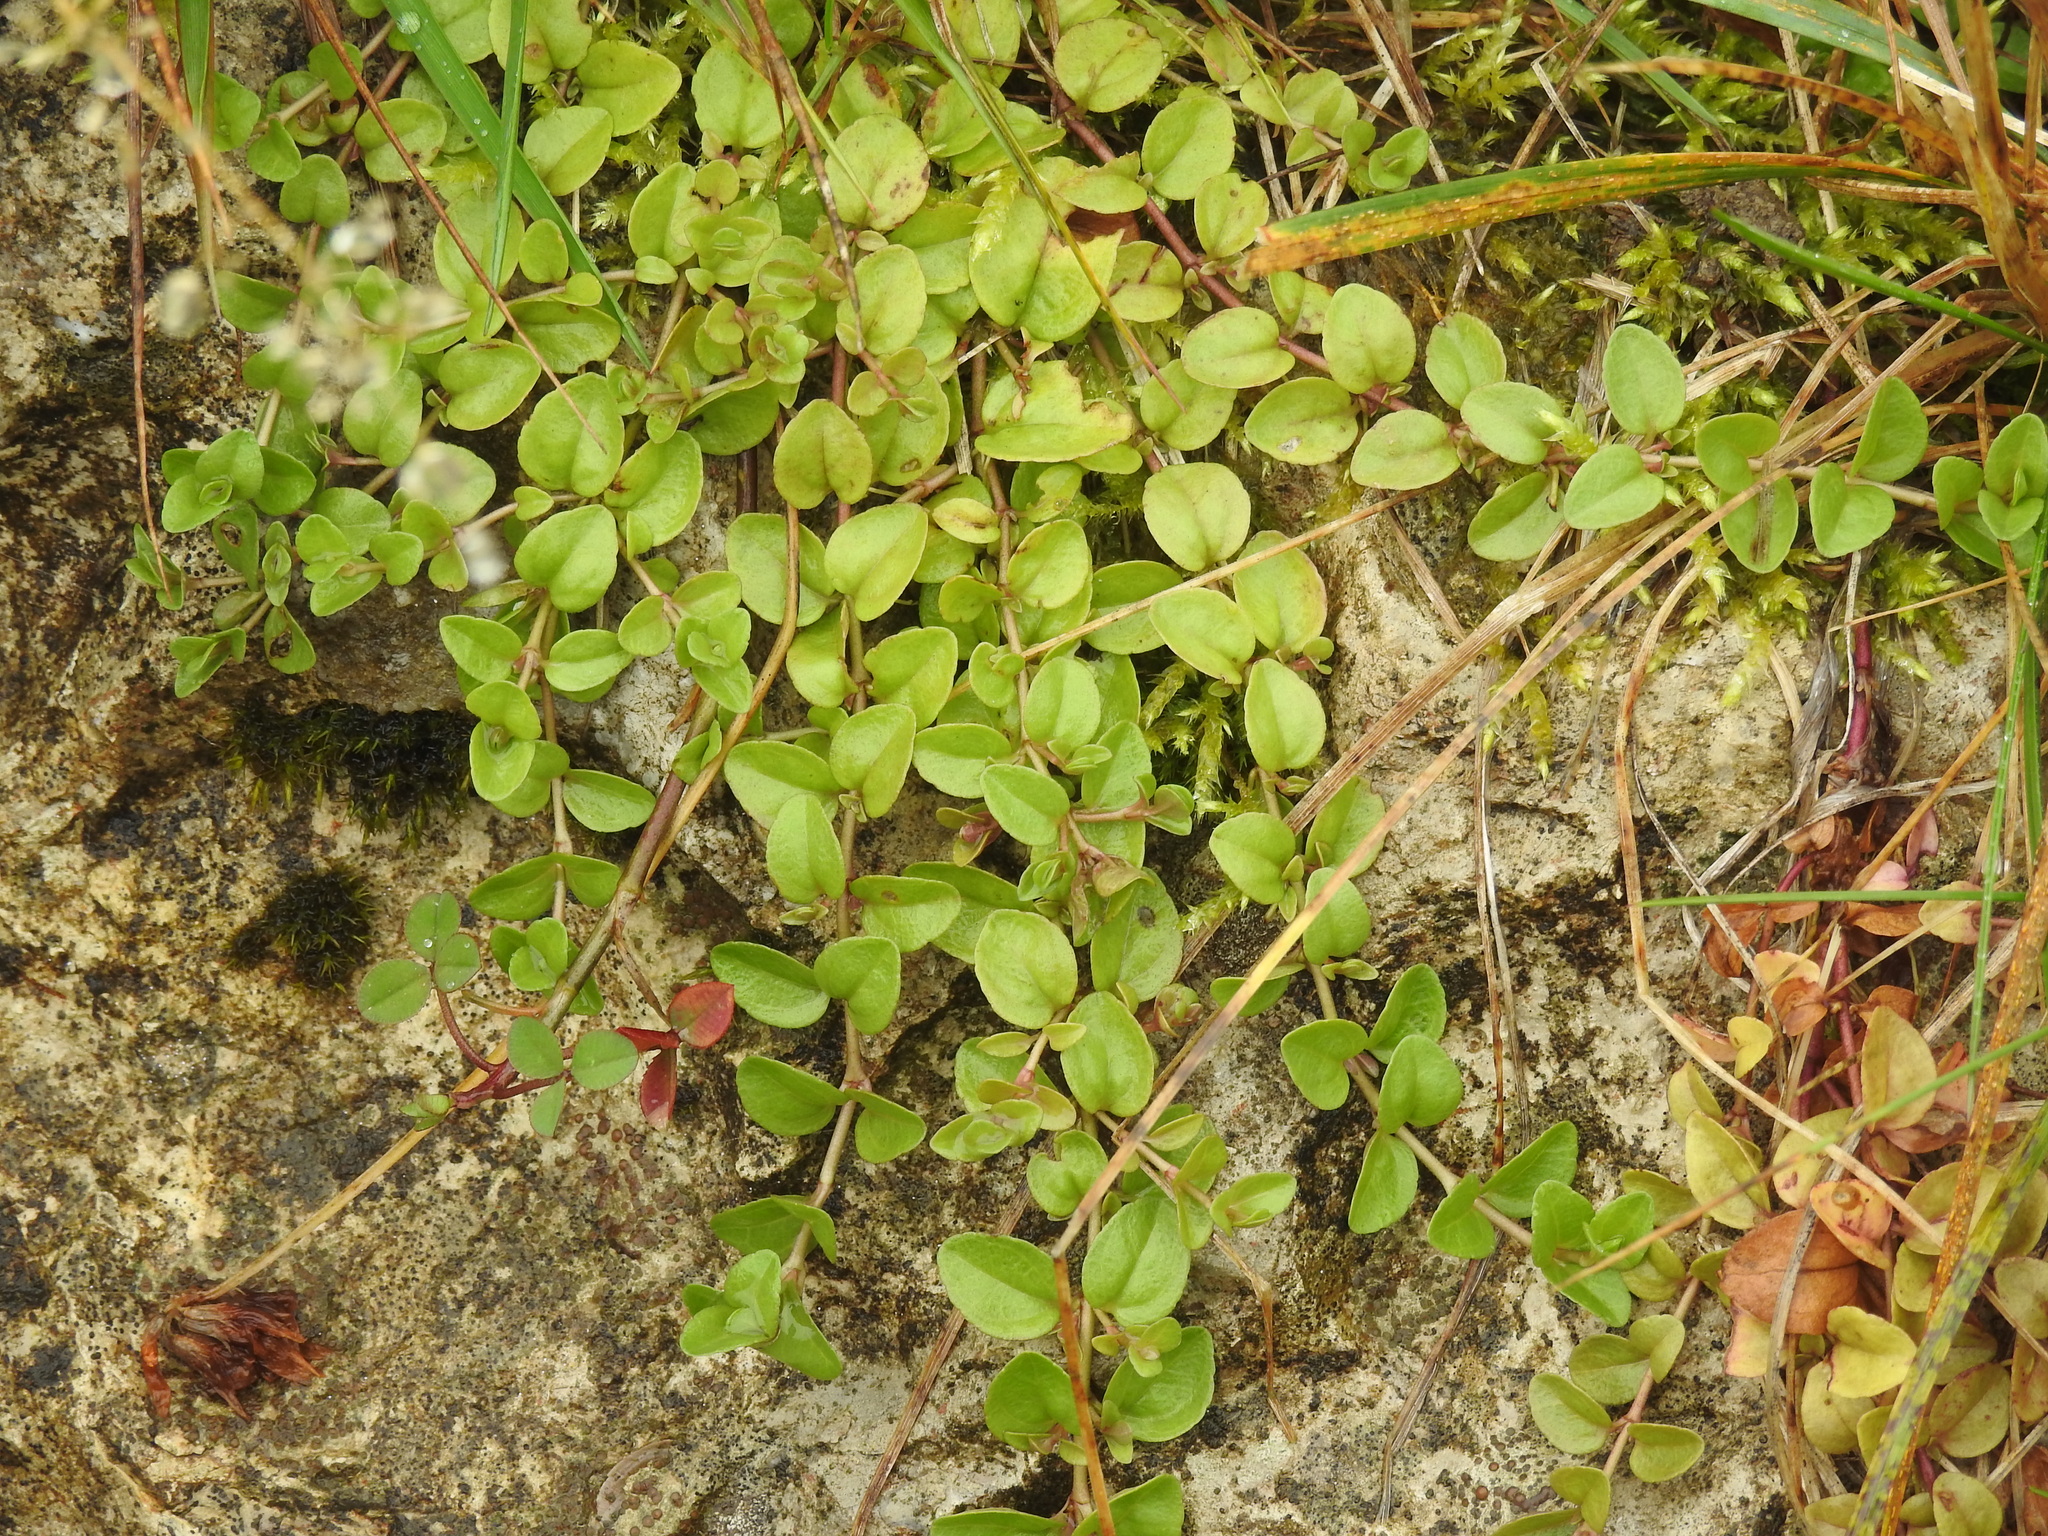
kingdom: Plantae
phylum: Tracheophyta
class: Magnoliopsida
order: Lamiales
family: Plantaginaceae
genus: Veronica
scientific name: Veronica serpyllifolia
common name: Thyme-leaved speedwell
